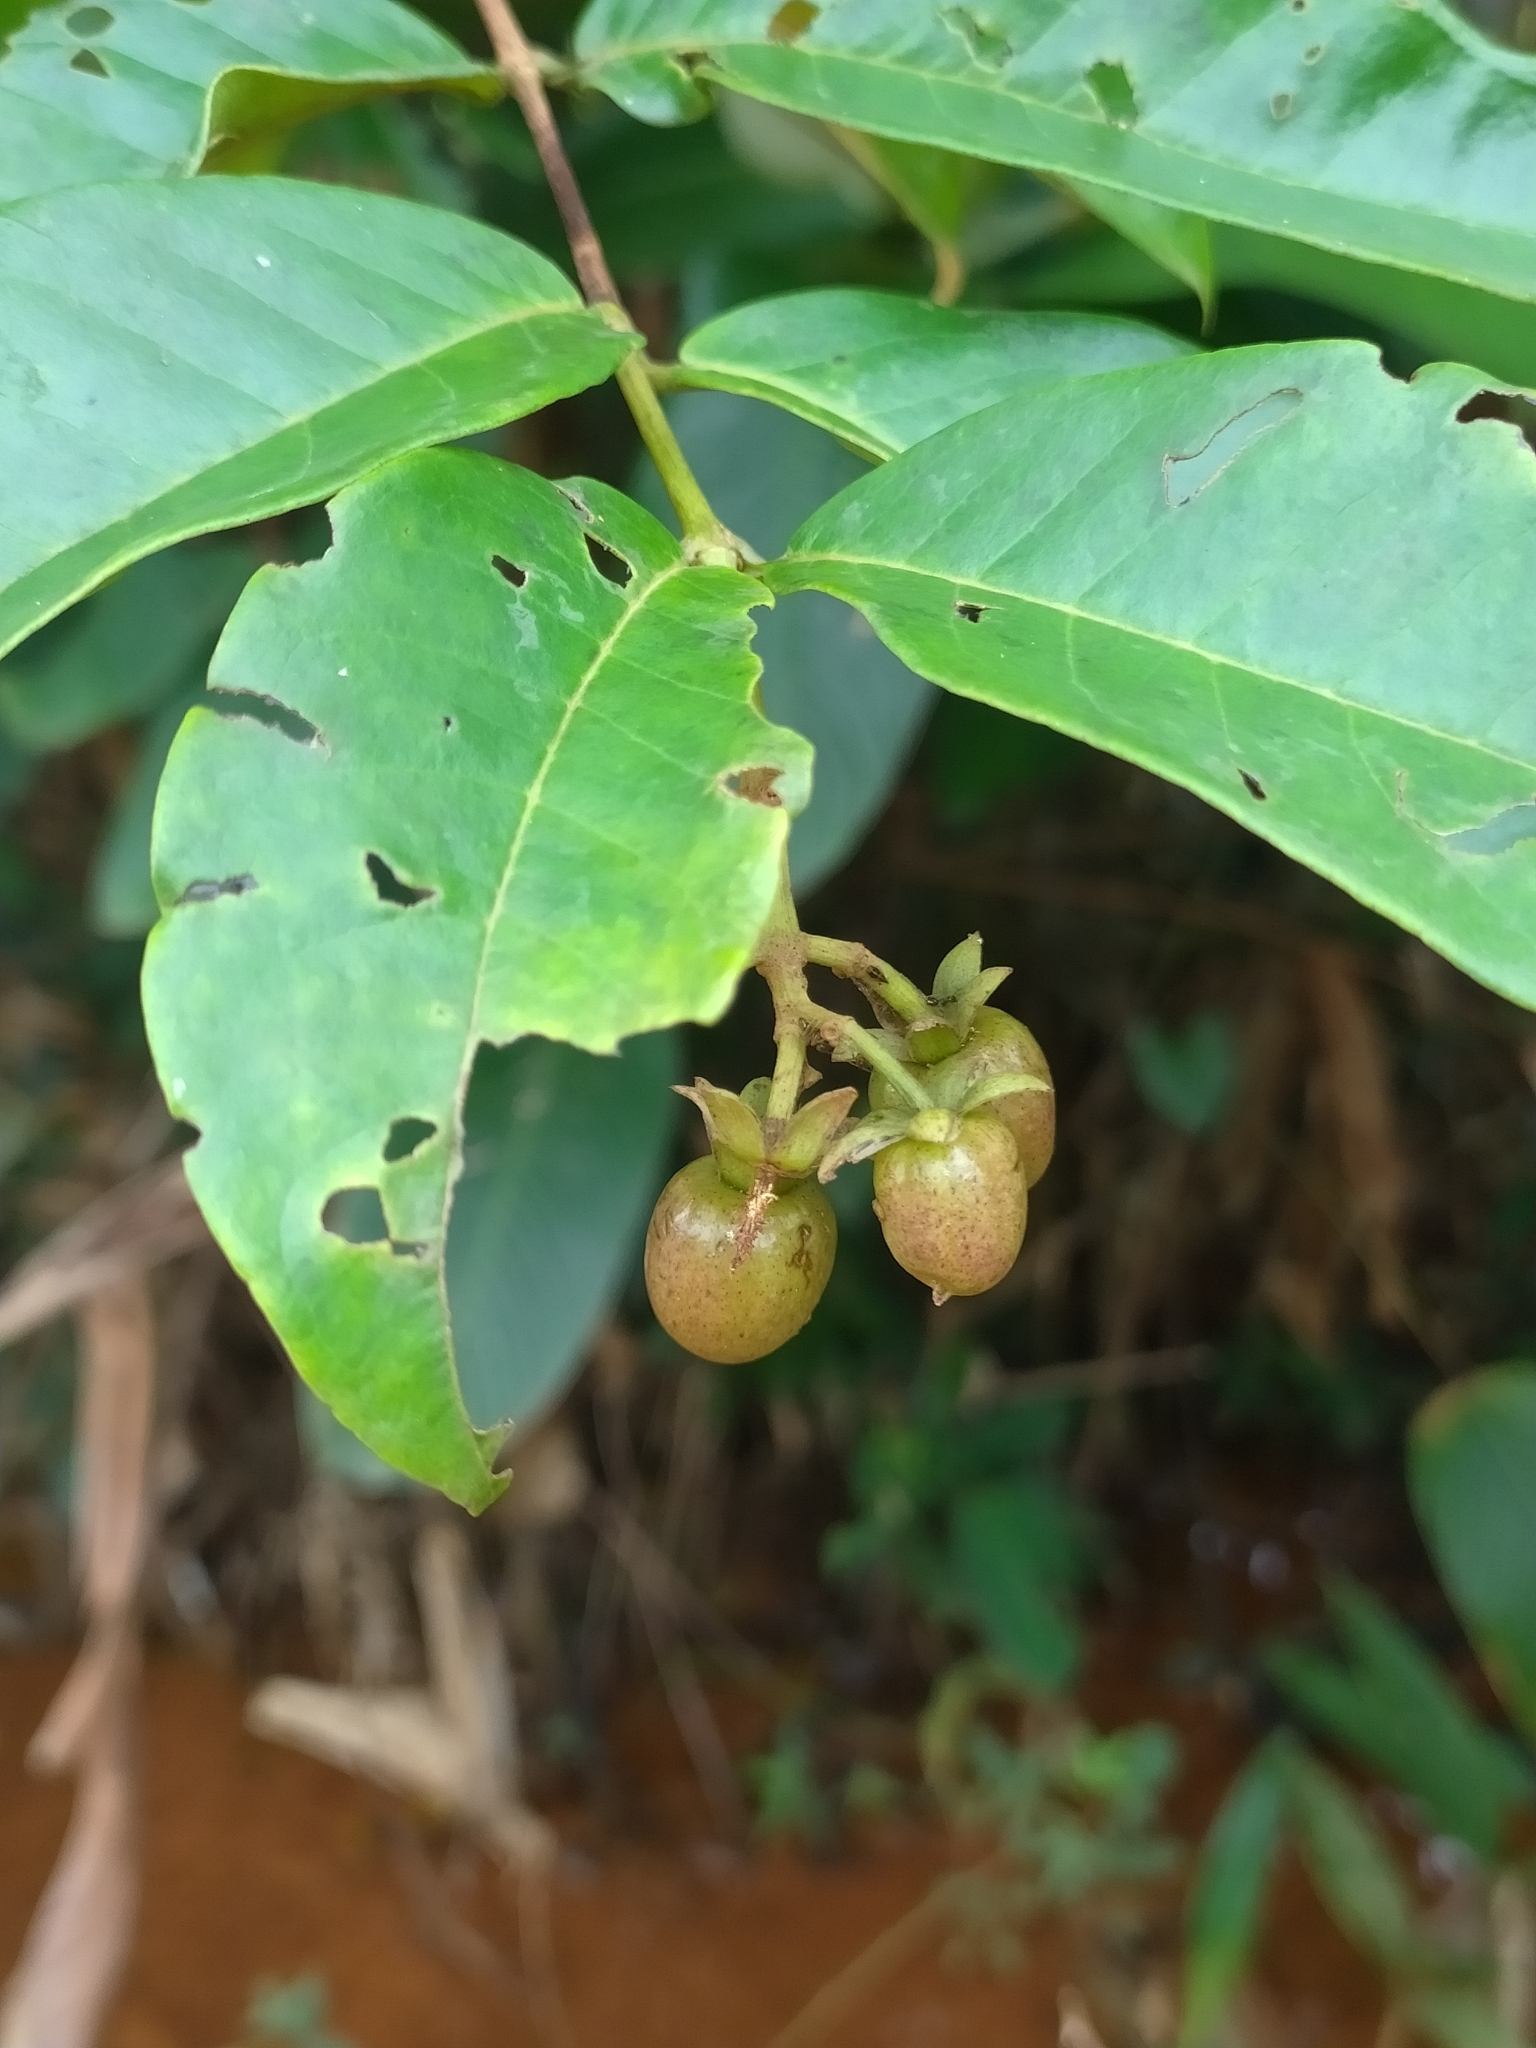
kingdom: Plantae
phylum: Tracheophyta
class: Magnoliopsida
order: Malpighiales
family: Hypericaceae
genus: Vismia
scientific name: Vismia cayennensis
